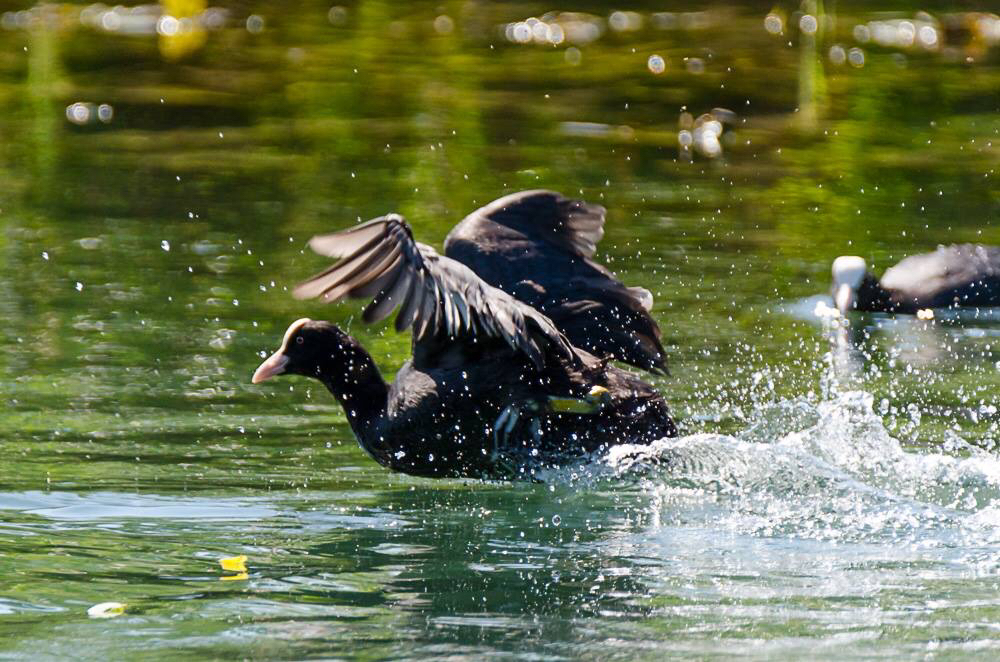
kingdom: Animalia
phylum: Chordata
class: Aves
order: Gruiformes
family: Rallidae
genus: Fulica
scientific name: Fulica atra
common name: Eurasian coot
